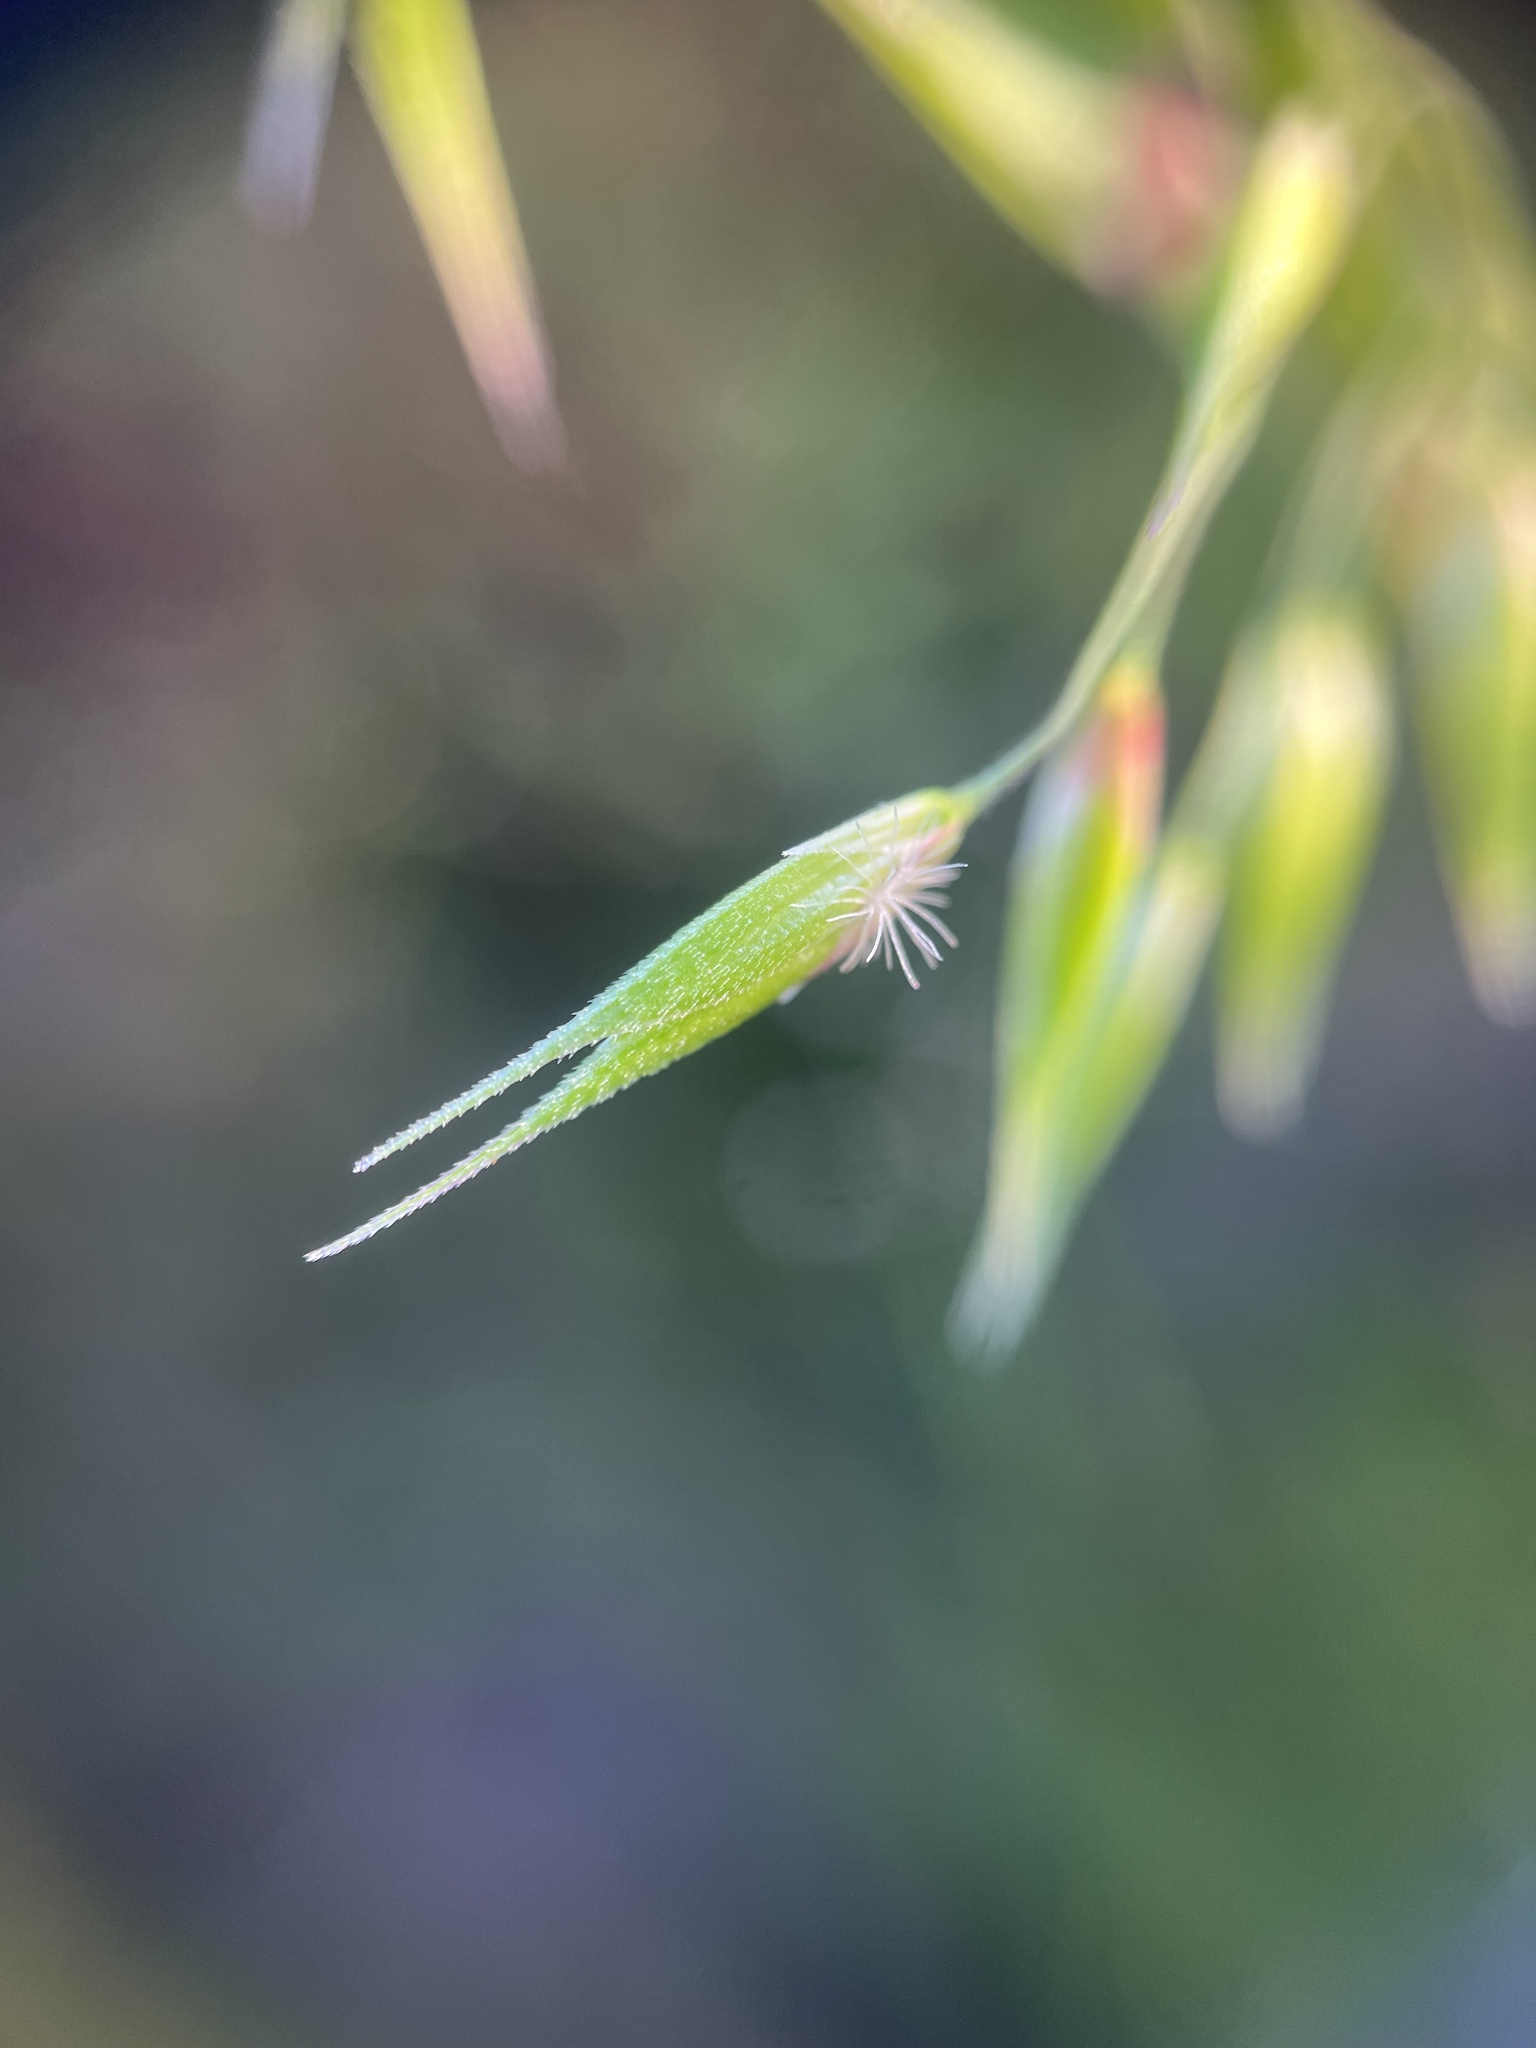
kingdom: Plantae
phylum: Tracheophyta
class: Liliopsida
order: Poales
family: Poaceae
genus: Ehrharta
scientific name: Ehrharta longiflora
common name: Longflowered veldtgrass
